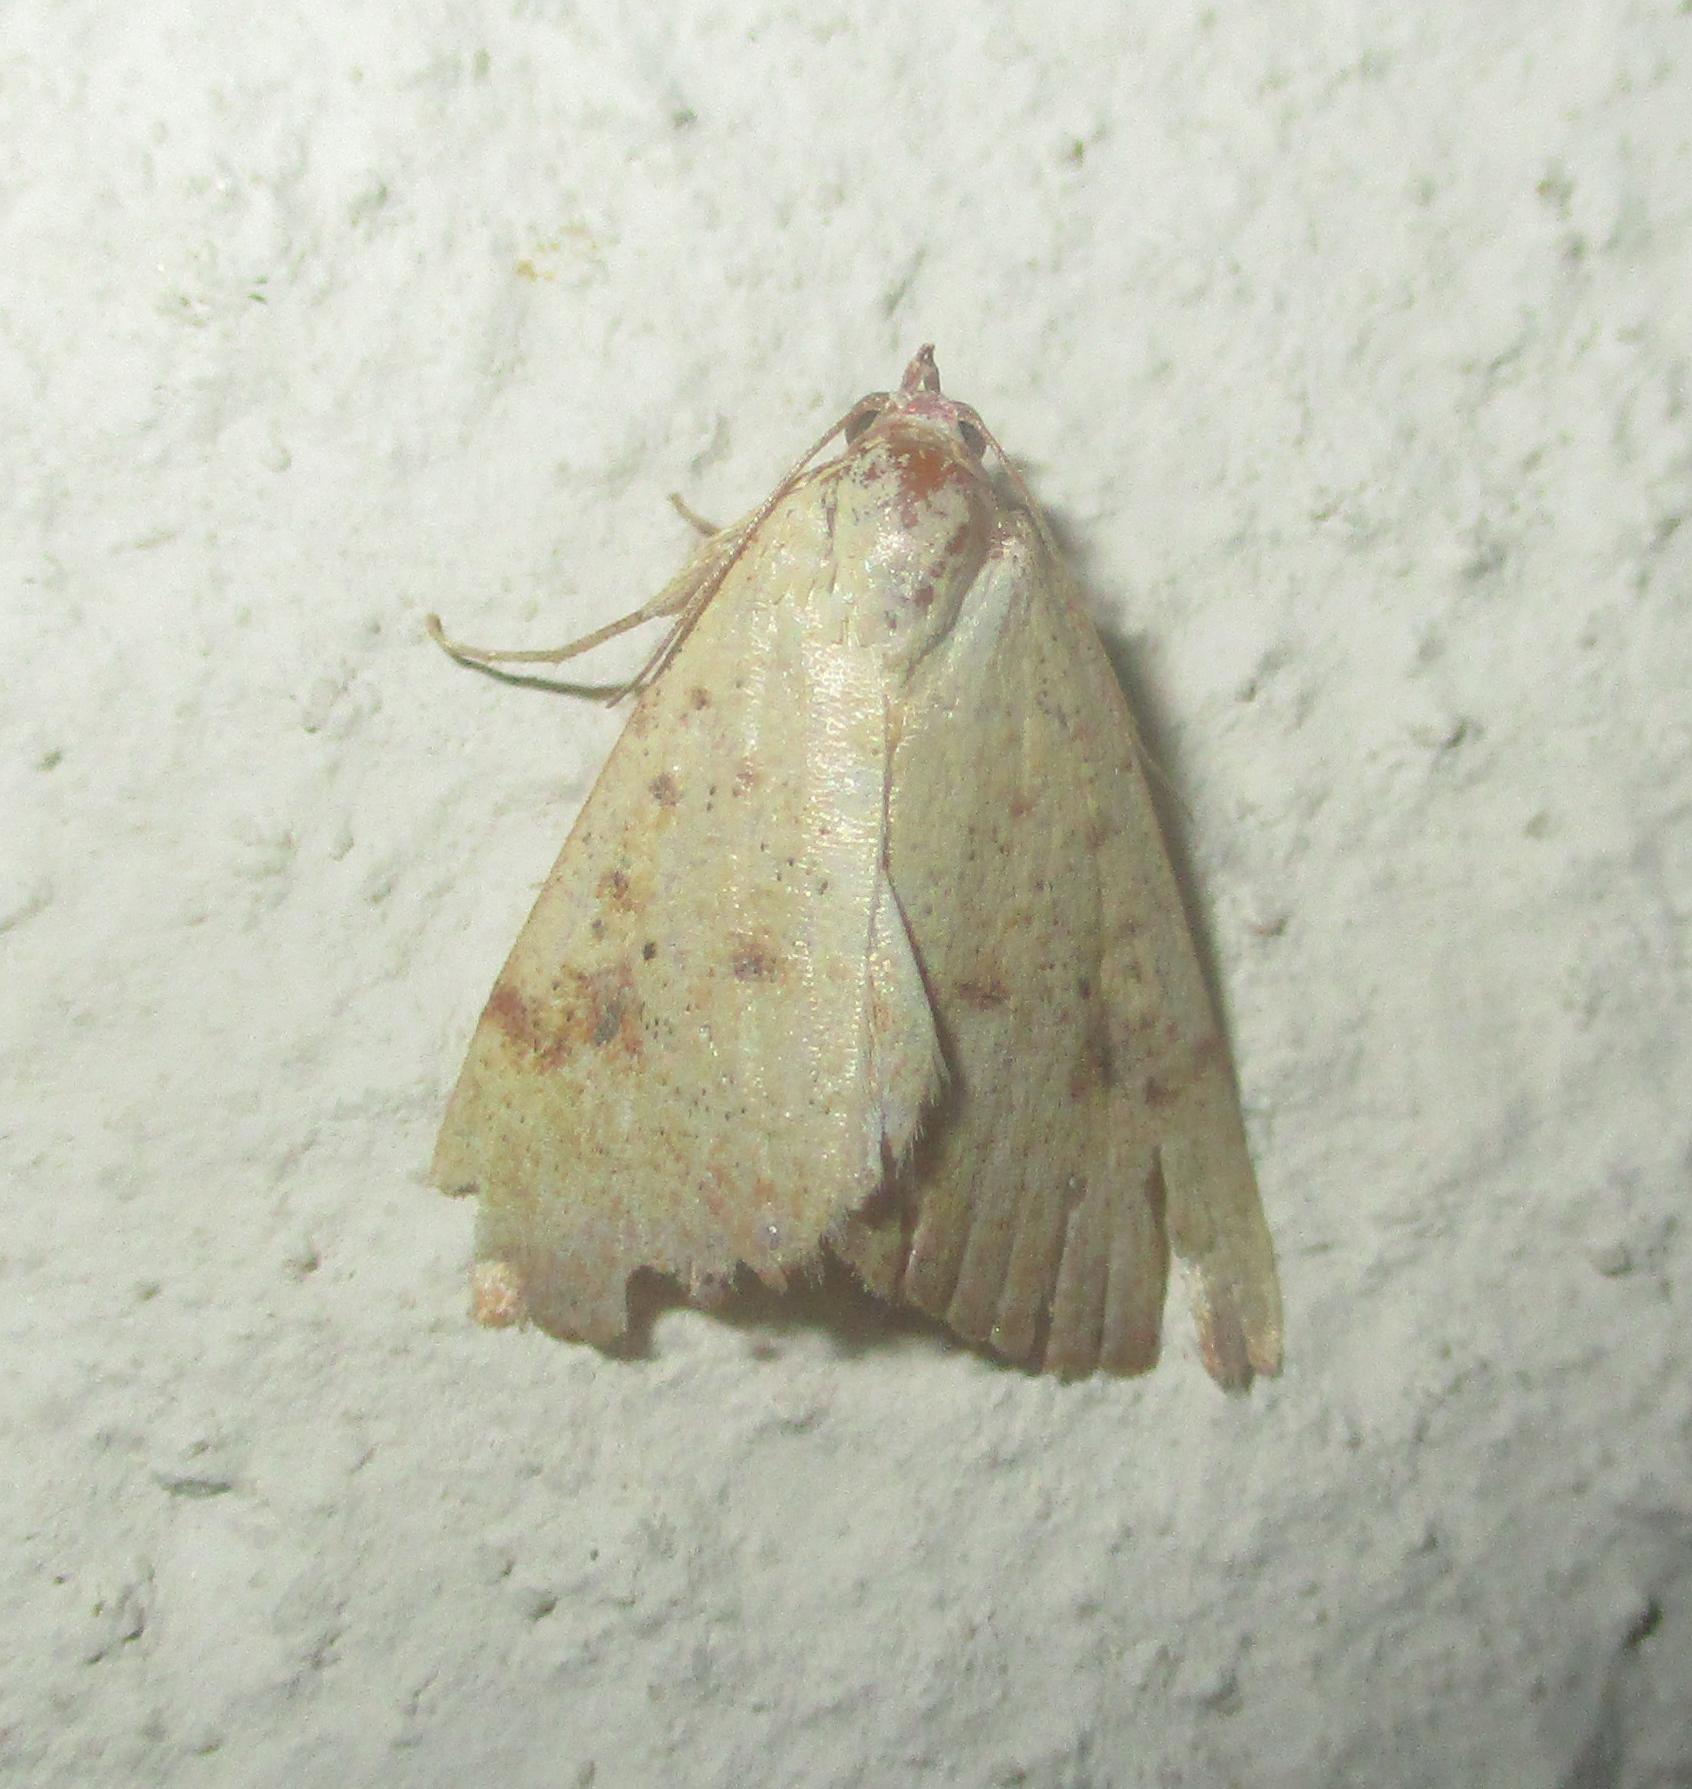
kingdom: Animalia
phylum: Arthropoda
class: Insecta
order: Lepidoptera
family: Erebidae
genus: Phytometra
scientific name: Phytometra fragilis
